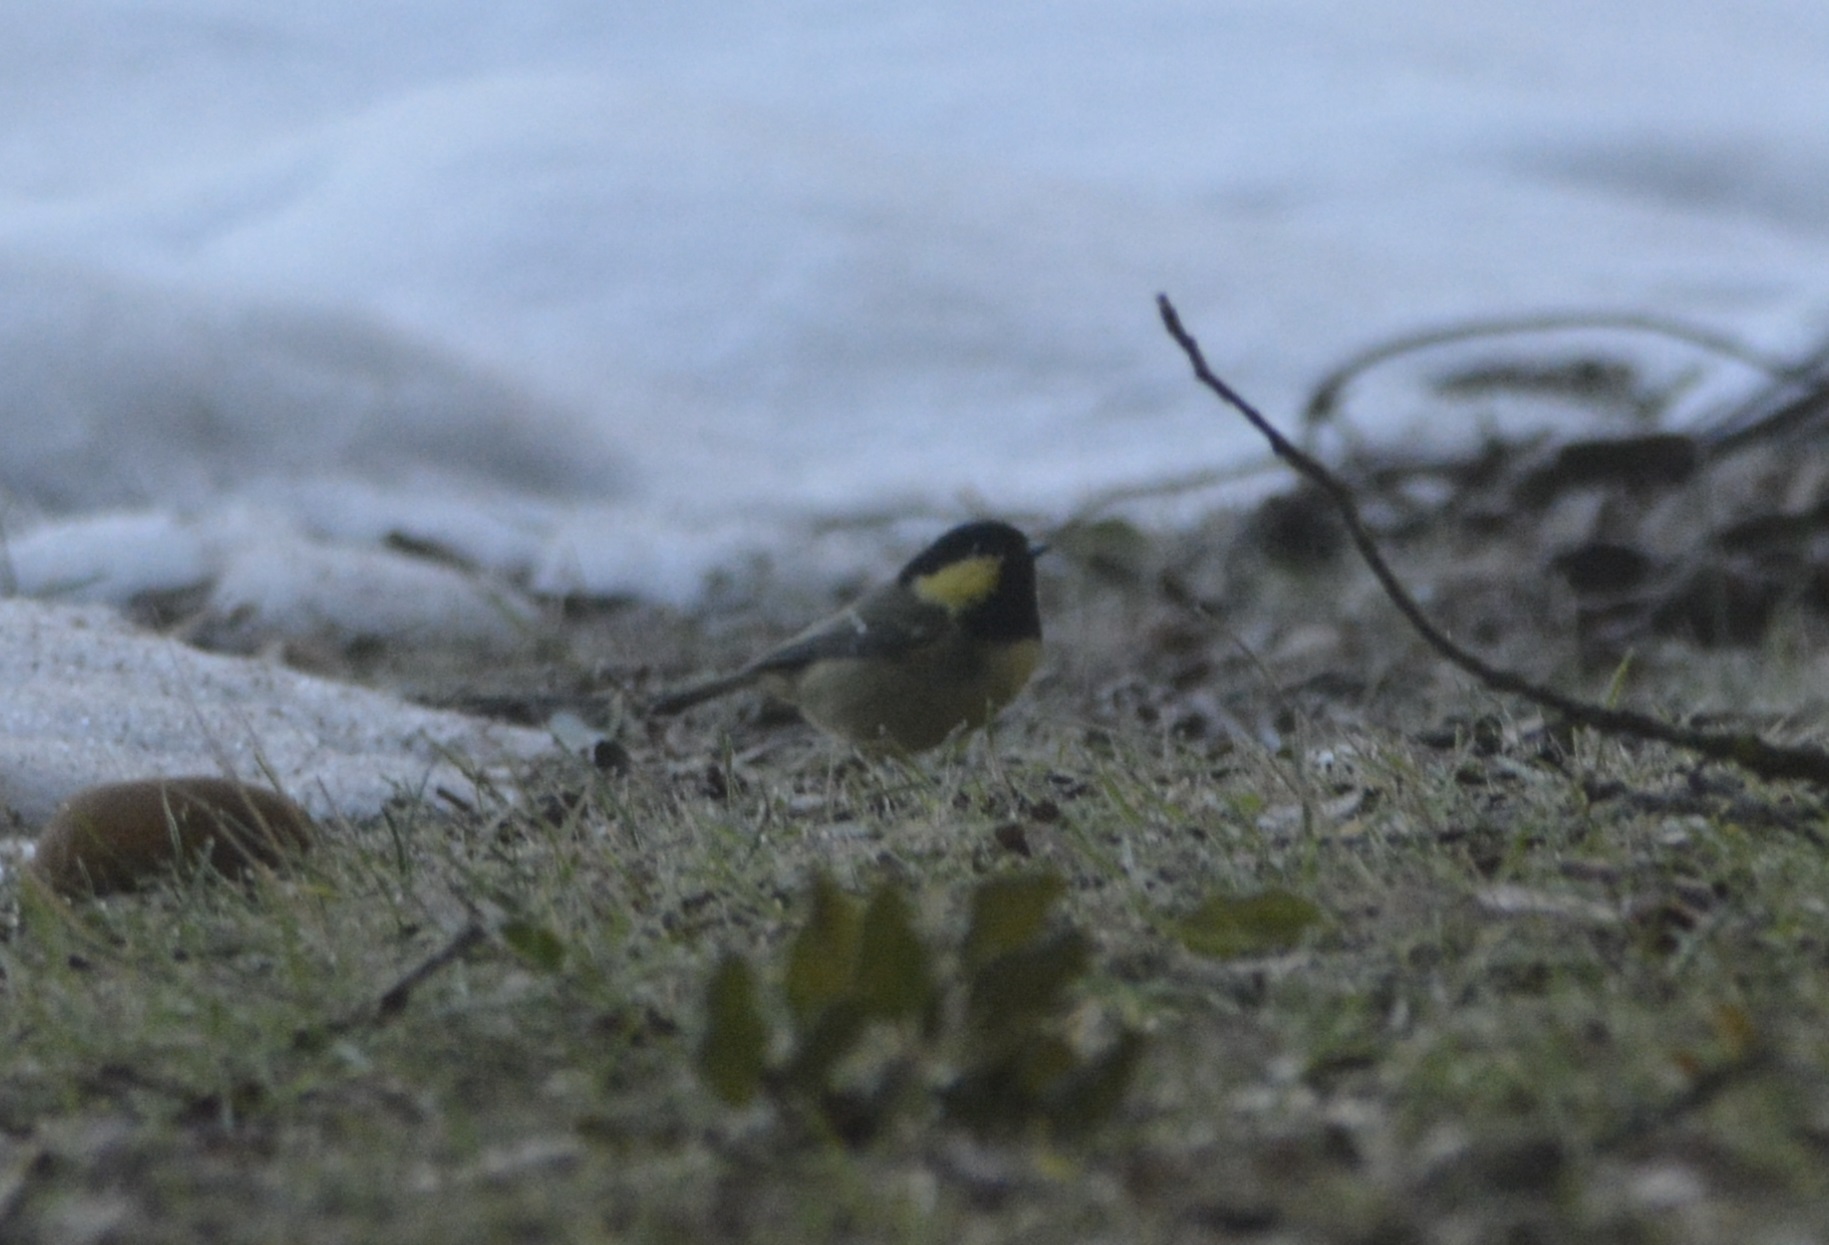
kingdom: Animalia
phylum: Chordata
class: Aves
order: Passeriformes
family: Paridae
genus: Periparus
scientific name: Periparus ater
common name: Coal tit
